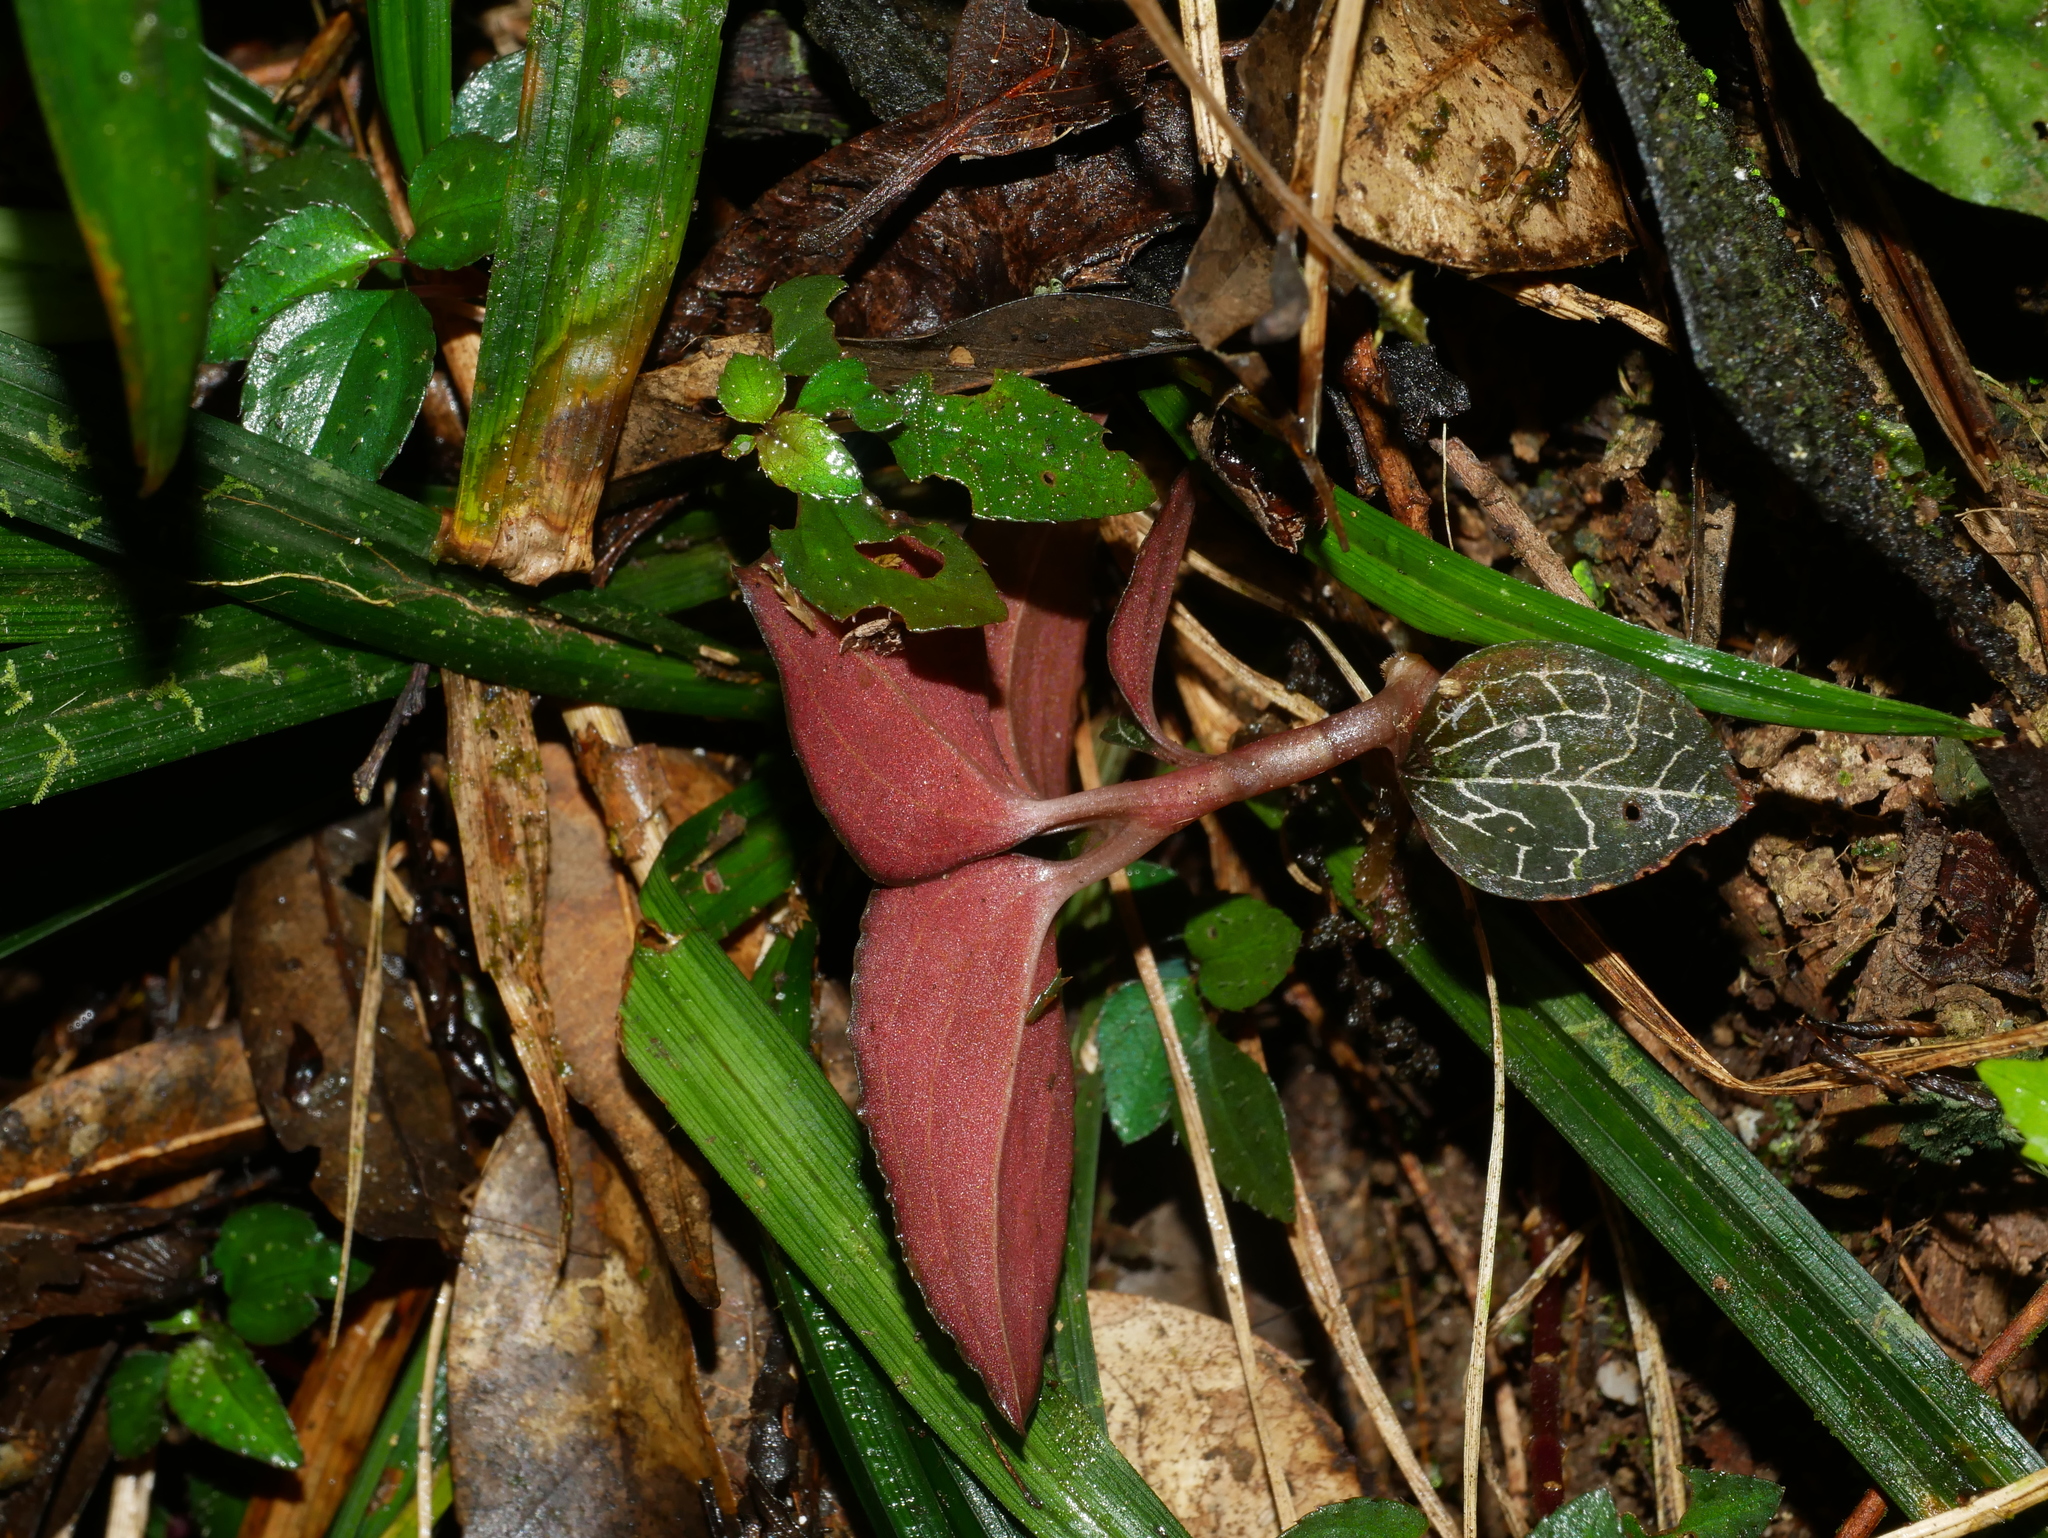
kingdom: Plantae
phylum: Tracheophyta
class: Liliopsida
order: Asparagales
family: Orchidaceae
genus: Anoectochilus
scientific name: Anoectochilus formosanus
